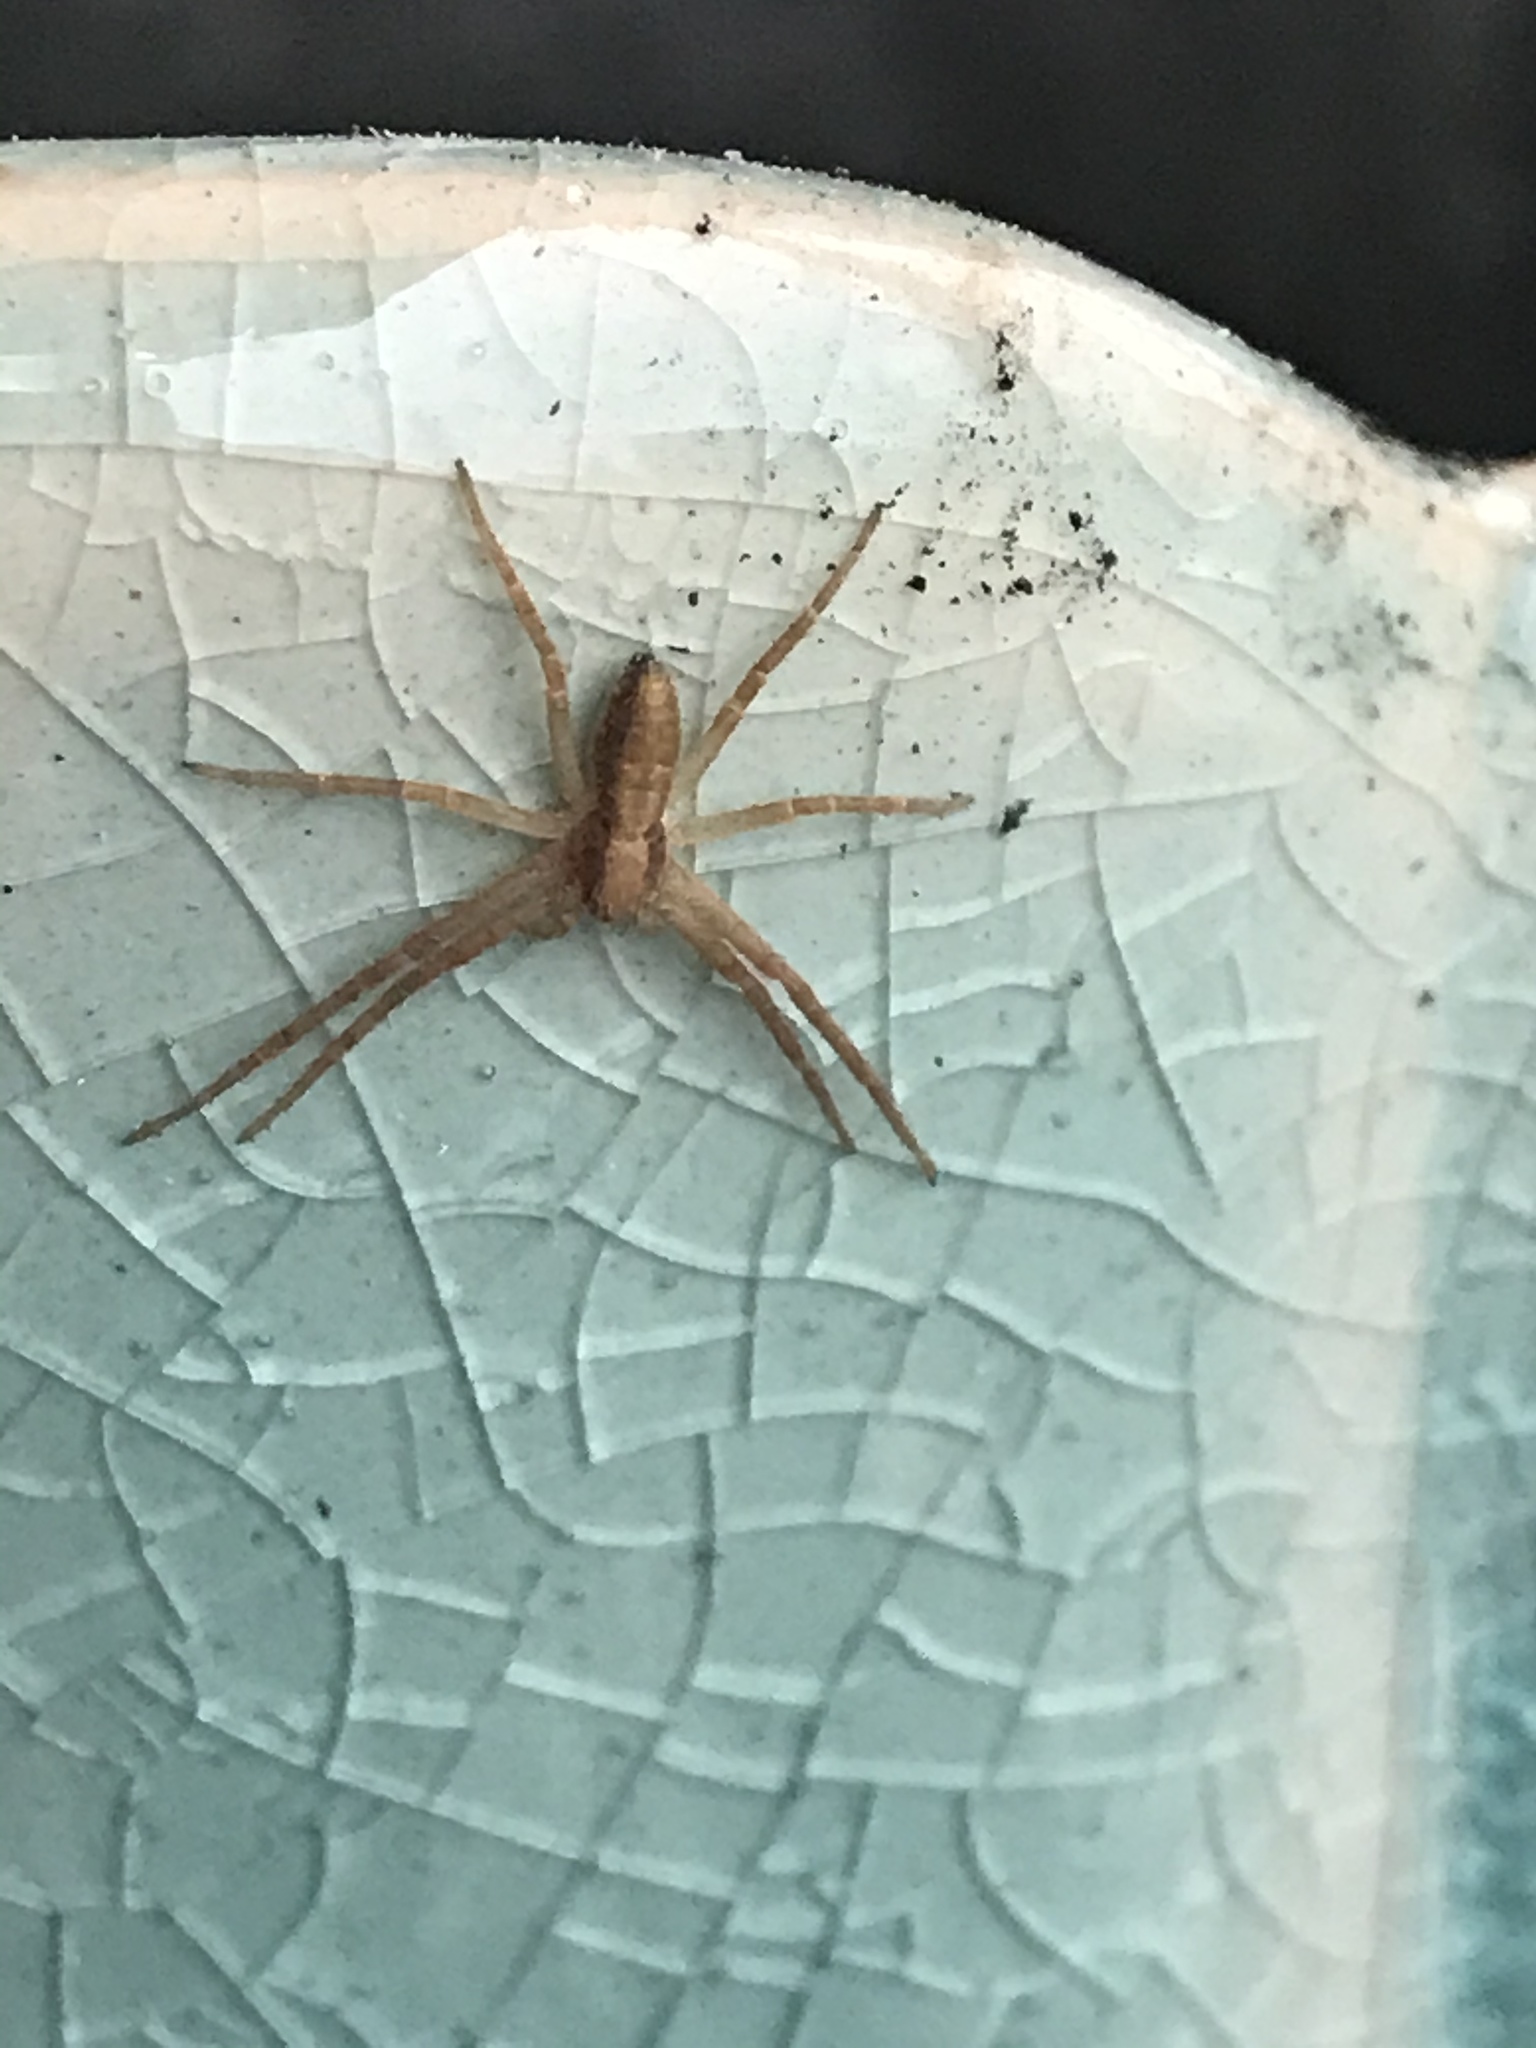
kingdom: Animalia
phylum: Arthropoda
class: Arachnida
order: Araneae
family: Philodromidae
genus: Philodromus
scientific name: Philodromus
